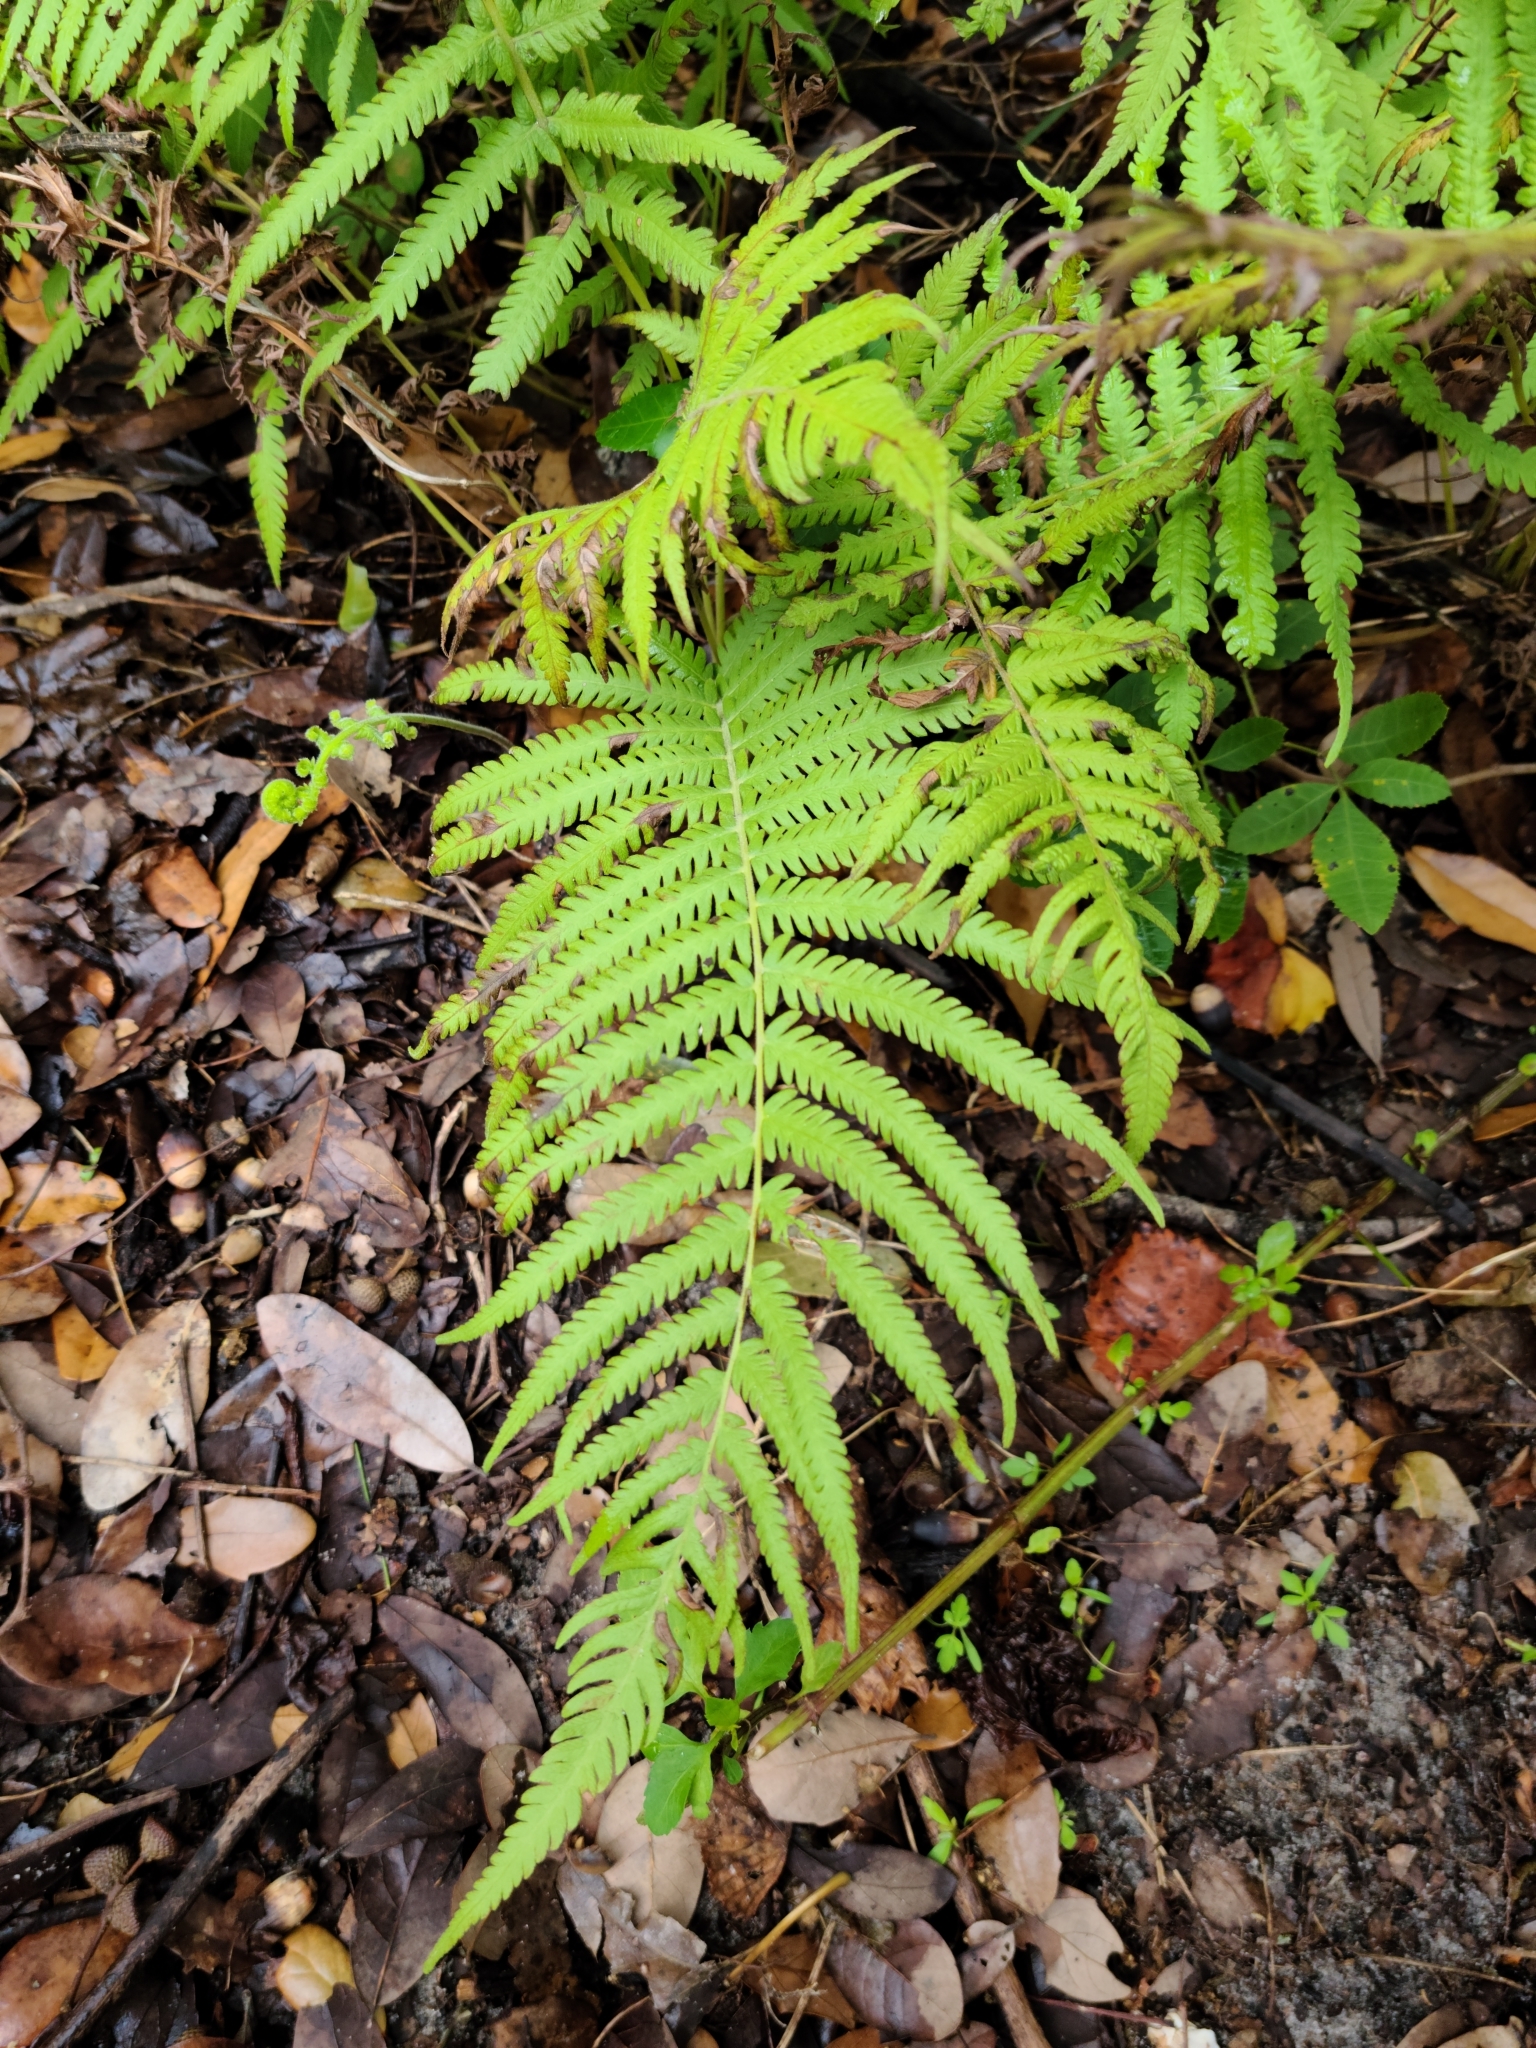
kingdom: Plantae
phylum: Tracheophyta
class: Polypodiopsida
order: Polypodiales
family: Thelypteridaceae
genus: Pelazoneuron
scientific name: Pelazoneuron kunthii
